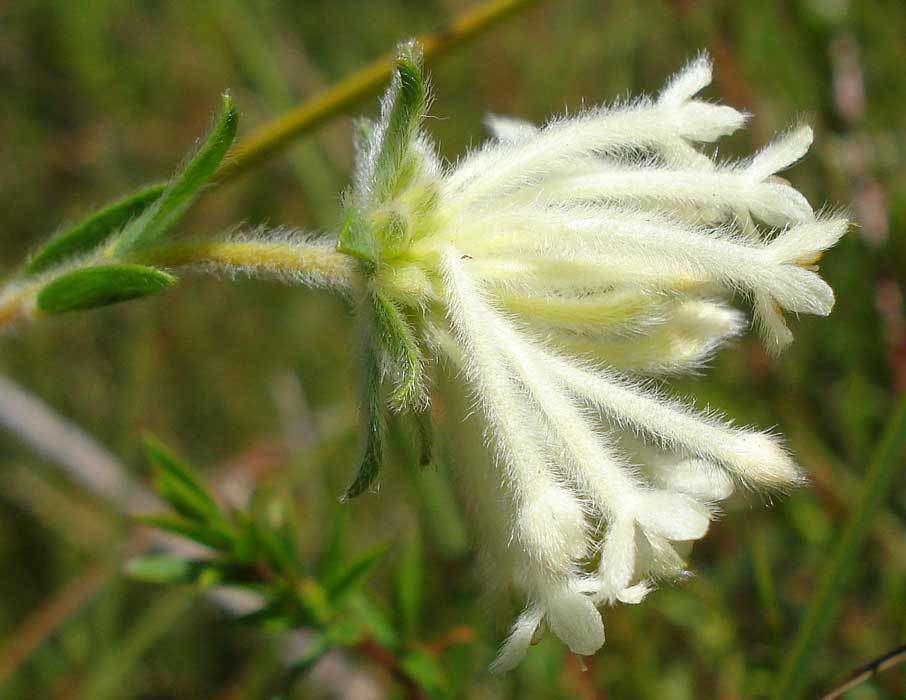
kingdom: Plantae
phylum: Tracheophyta
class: Magnoliopsida
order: Malvales
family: Thymelaeaceae
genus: Pimelea
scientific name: Pimelea octophylla
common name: Woolly riceflower
